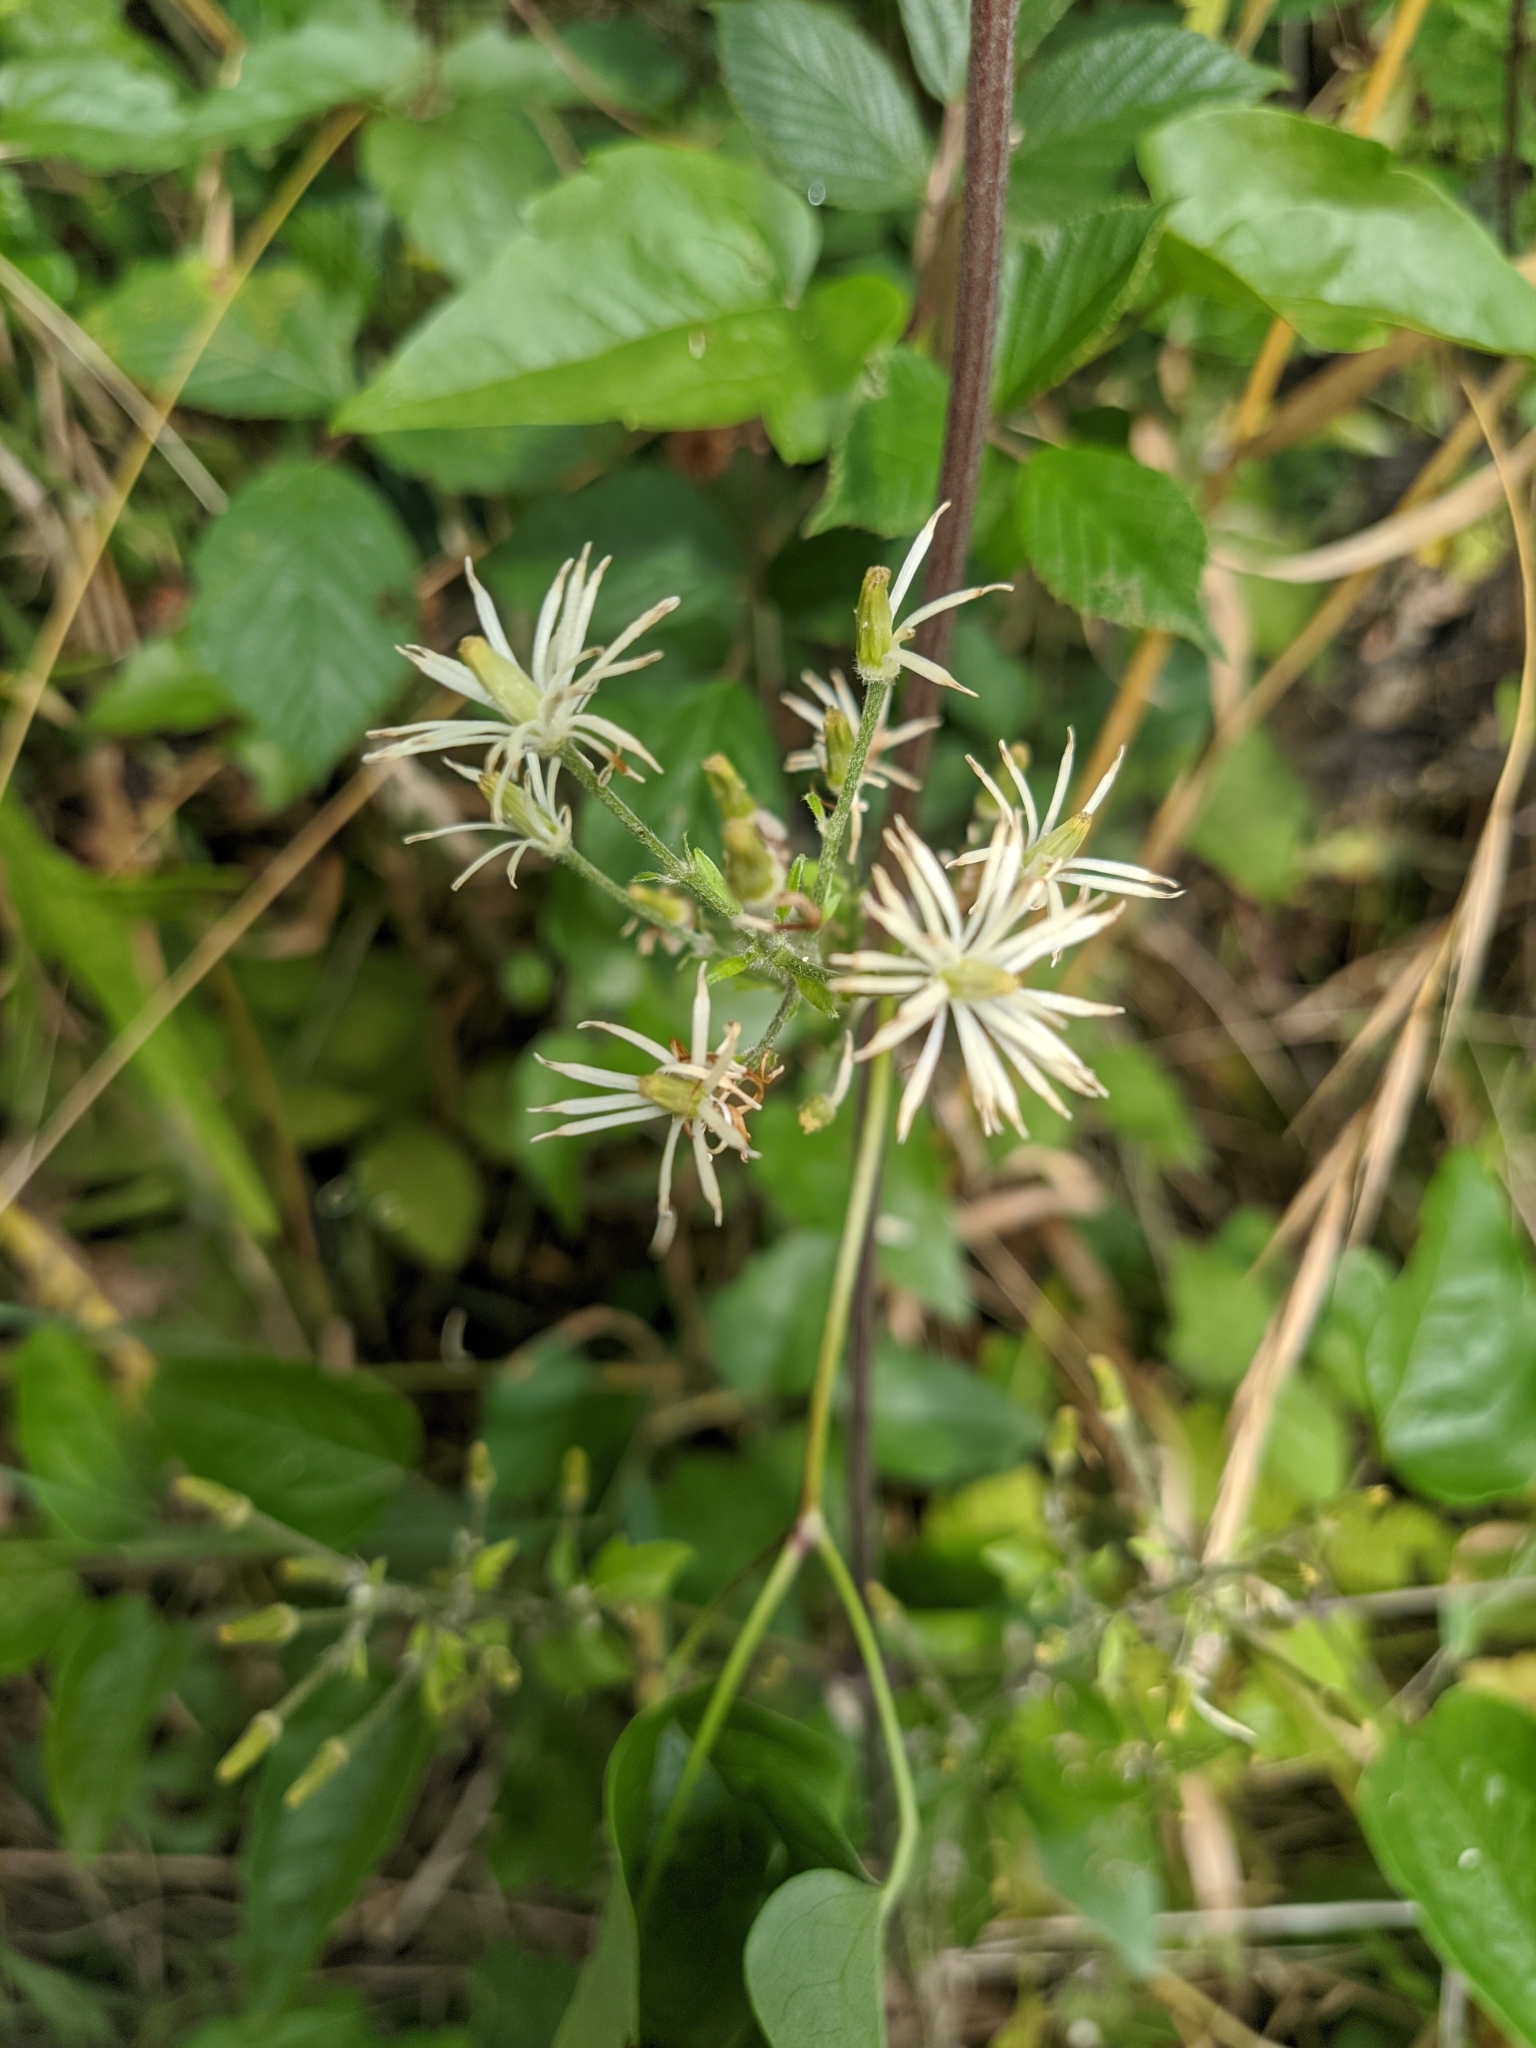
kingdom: Plantae
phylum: Tracheophyta
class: Magnoliopsida
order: Ranunculales
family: Ranunculaceae
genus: Clematis
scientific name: Clematis vitalba
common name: Evergreen clematis
